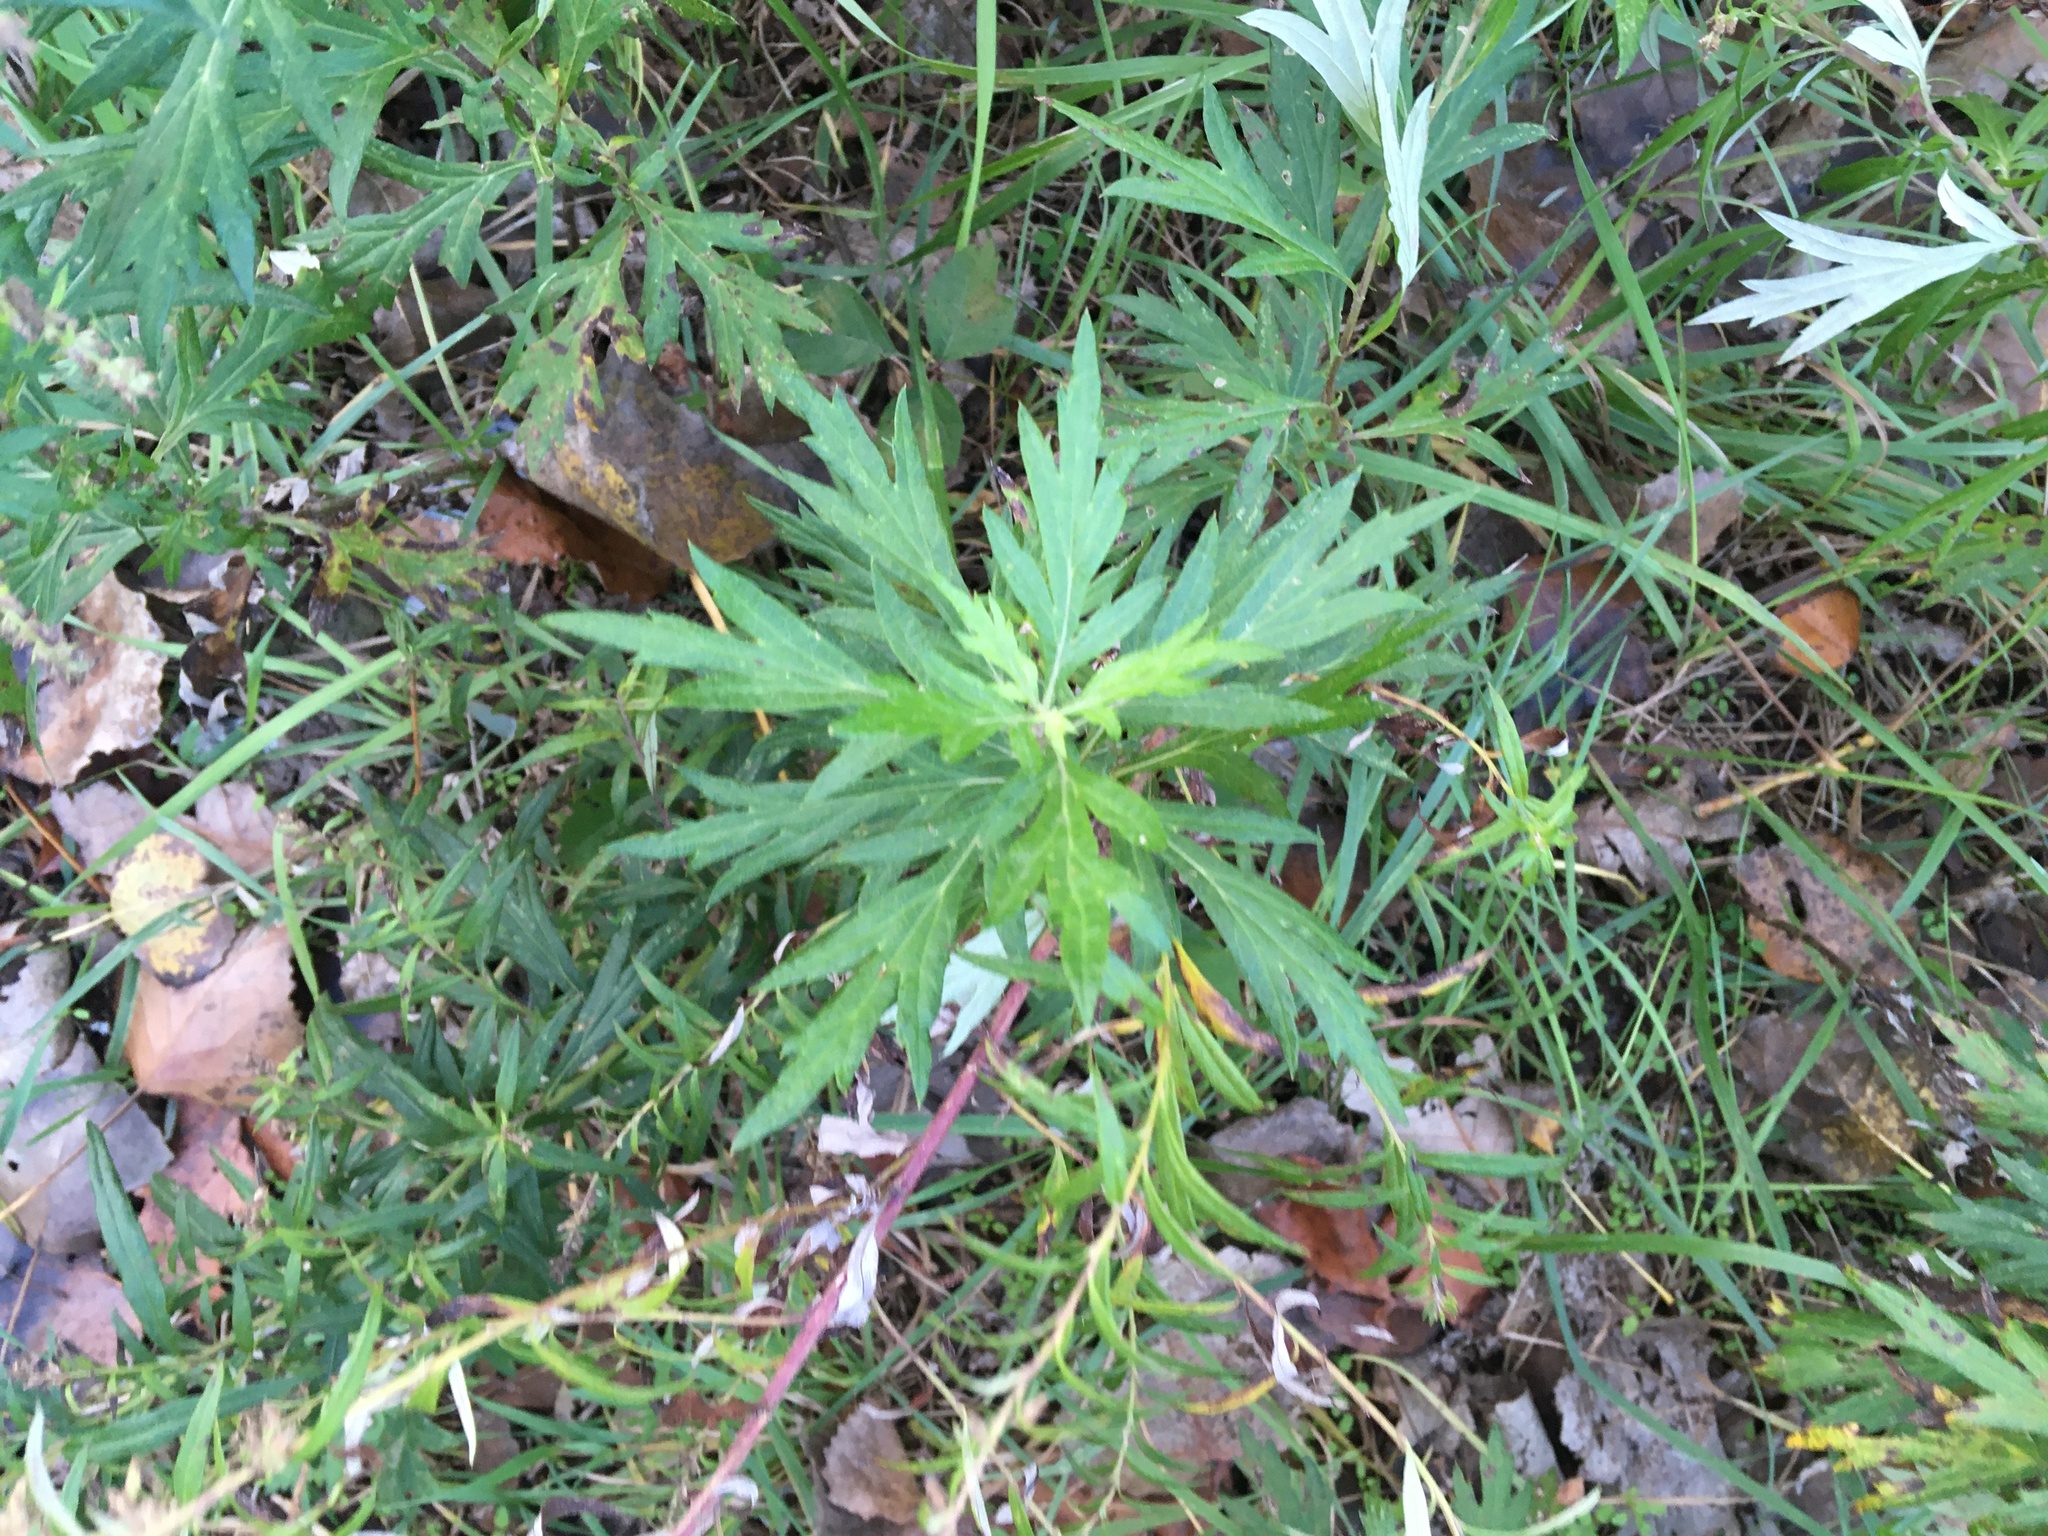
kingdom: Plantae
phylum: Tracheophyta
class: Magnoliopsida
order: Asterales
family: Asteraceae
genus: Artemisia
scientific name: Artemisia vulgaris
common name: Mugwort
